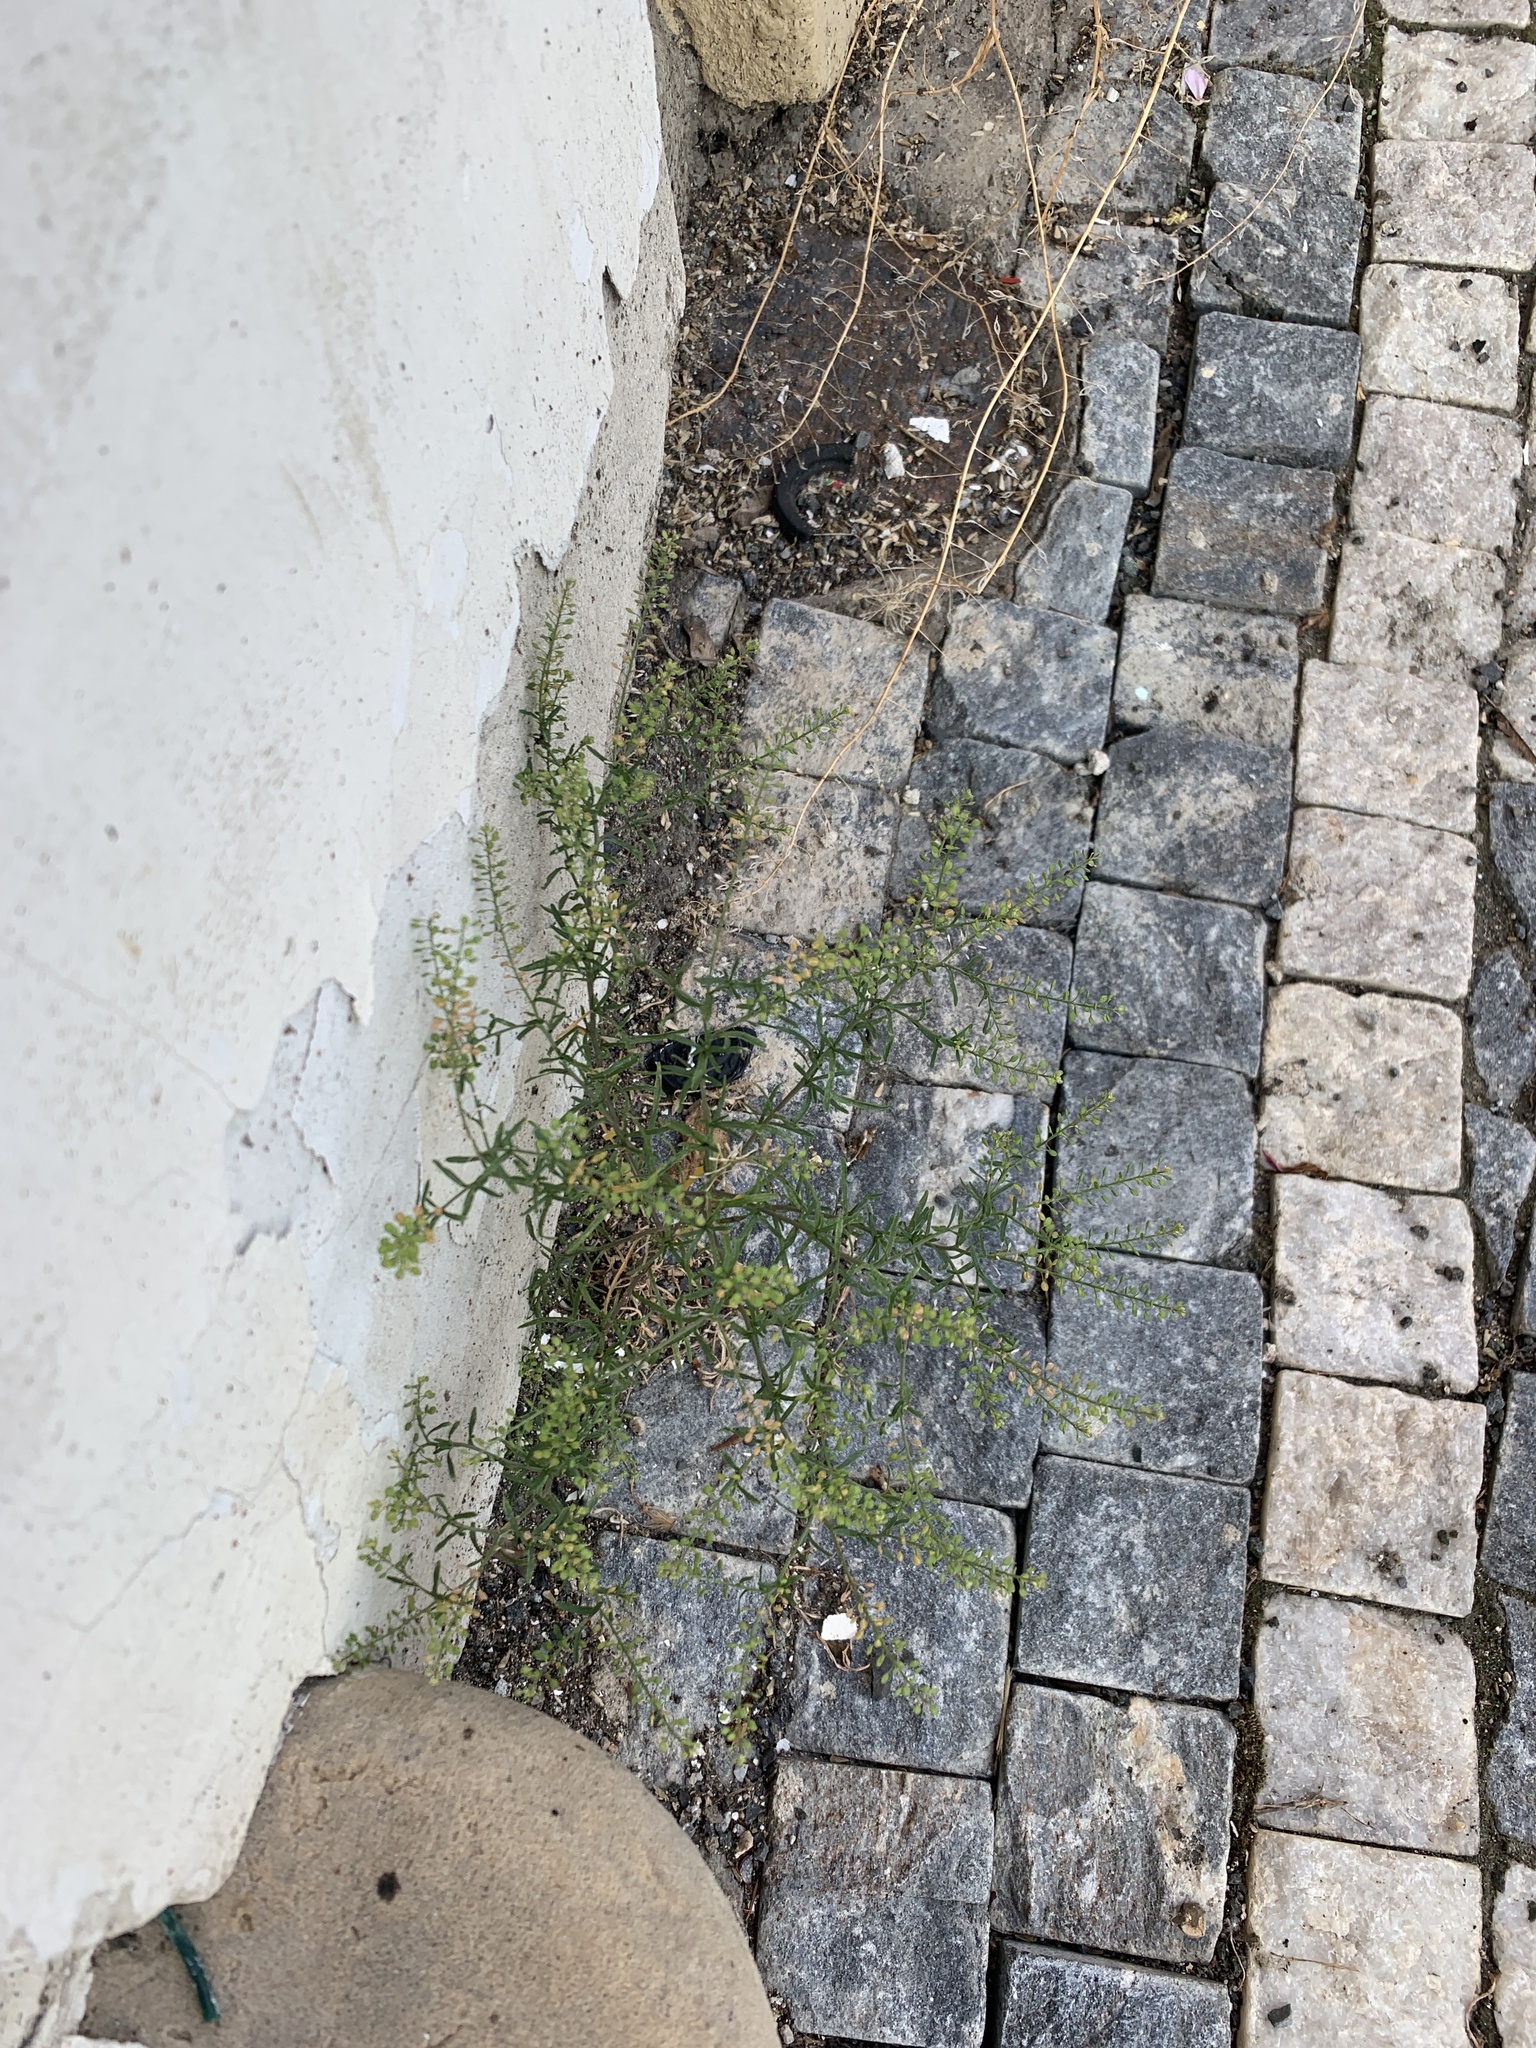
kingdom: Plantae
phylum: Tracheophyta
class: Magnoliopsida
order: Brassicales
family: Brassicaceae
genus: Lepidium
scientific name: Lepidium ruderale
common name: Narrow-leaved pepperwort
